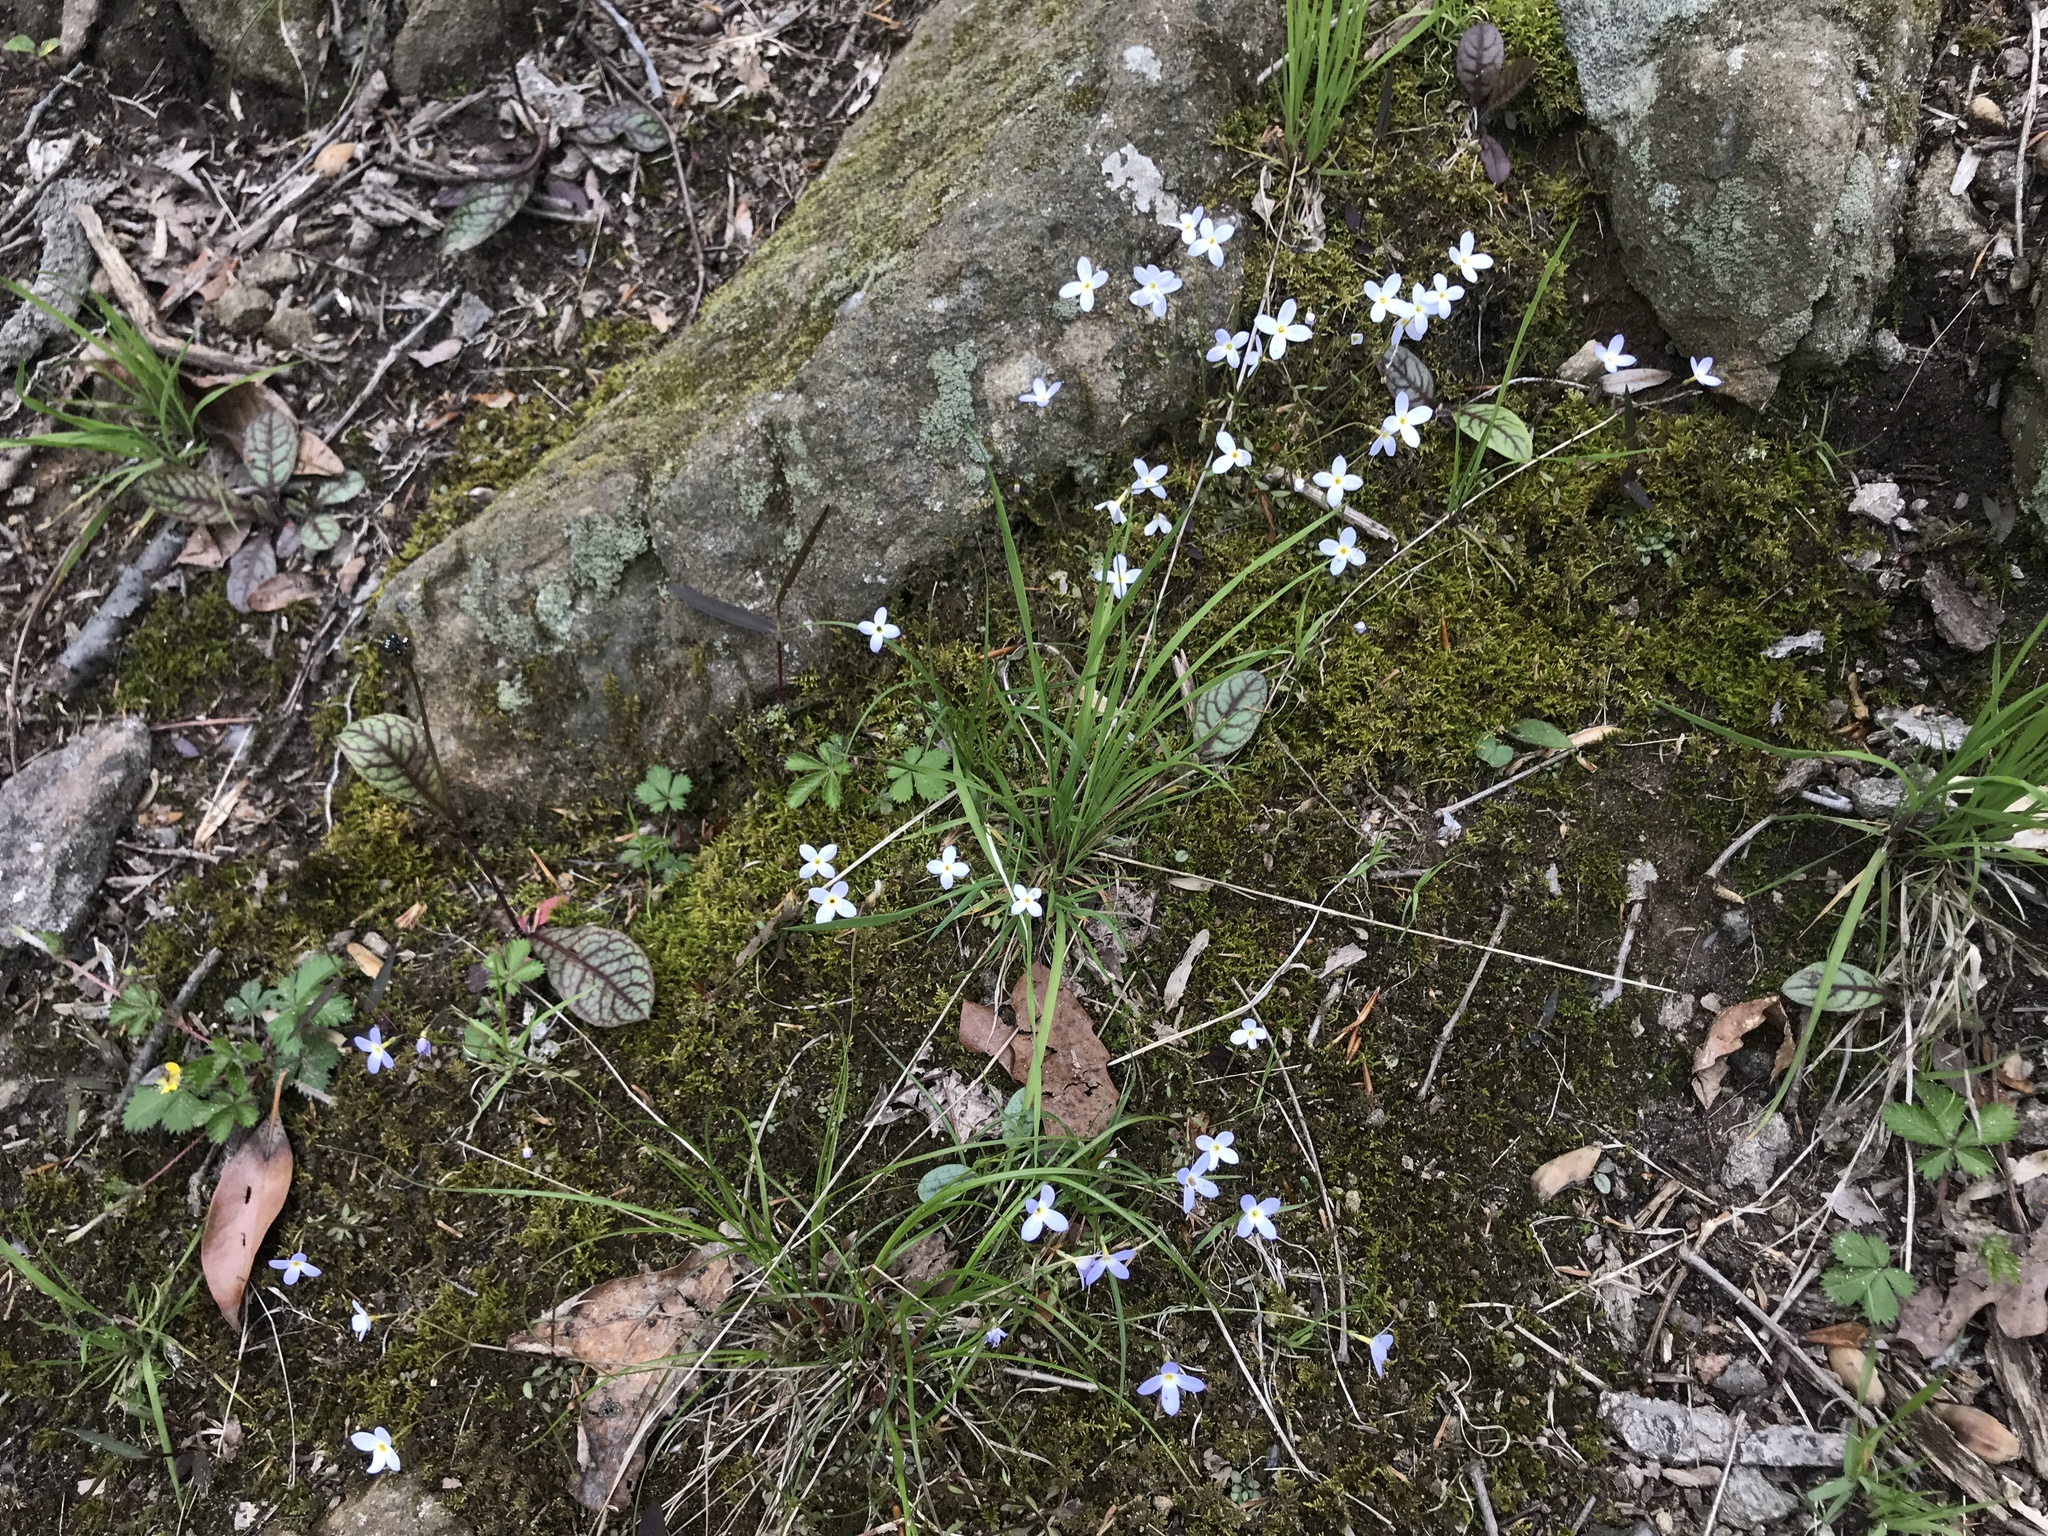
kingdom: Plantae
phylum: Tracheophyta
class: Magnoliopsida
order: Gentianales
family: Rubiaceae
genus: Houstonia
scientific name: Houstonia caerulea
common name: Bluets
